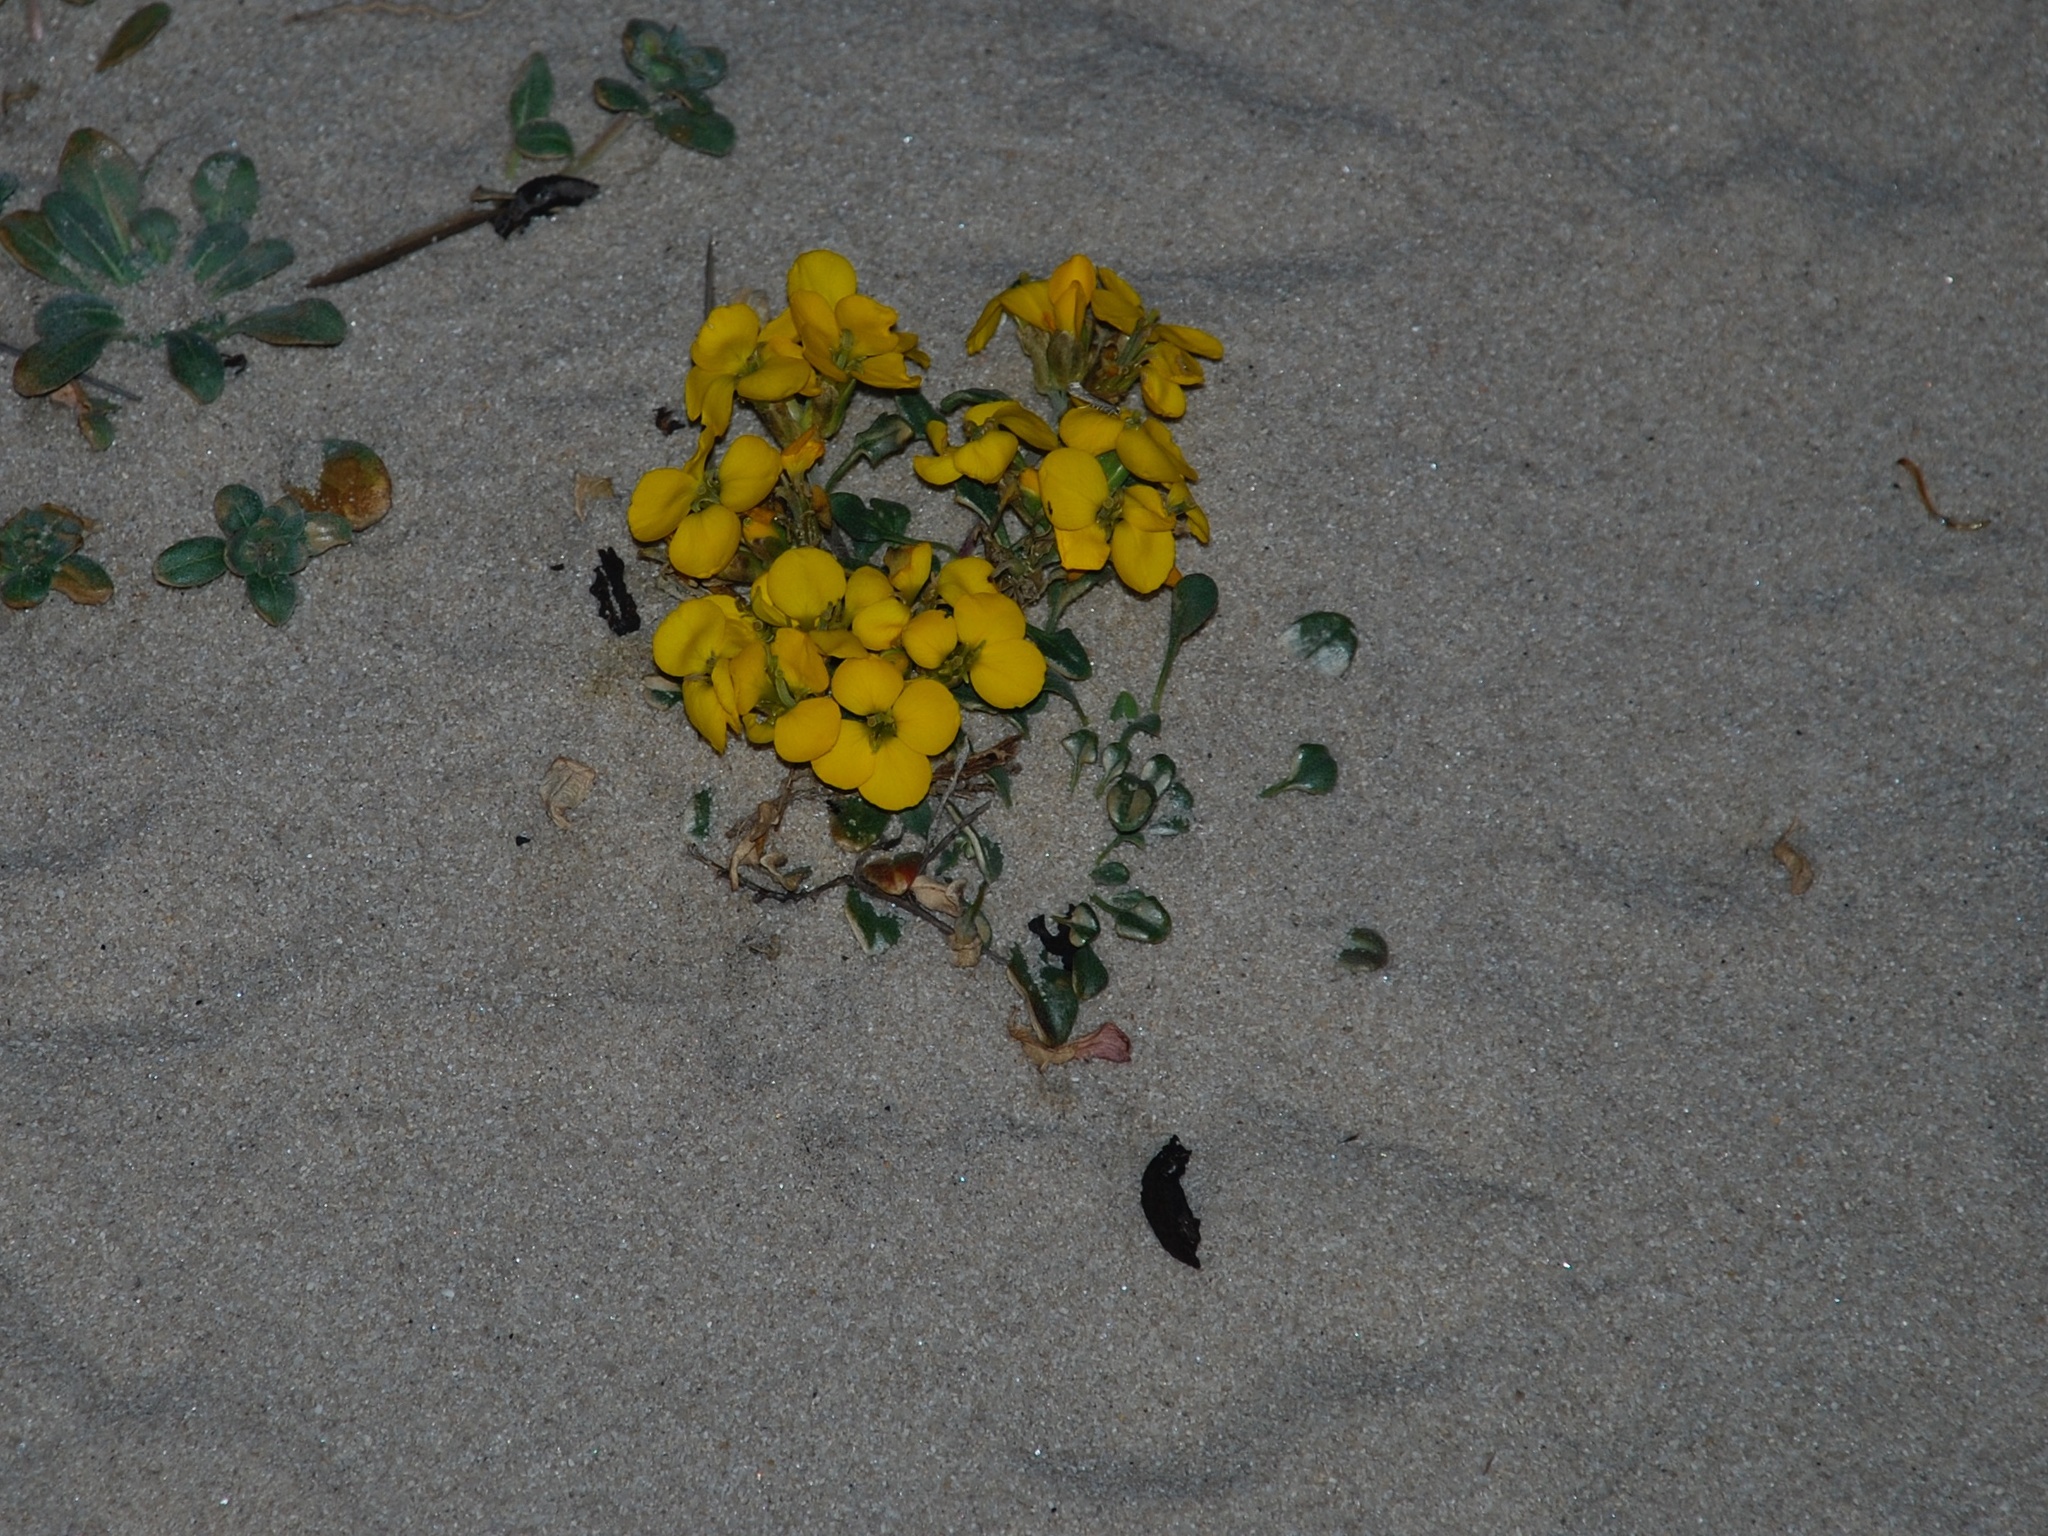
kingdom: Plantae
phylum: Tracheophyta
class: Magnoliopsida
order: Brassicales
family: Brassicaceae
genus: Erysimum
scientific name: Erysimum menziesii
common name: Menzies's wallflower
